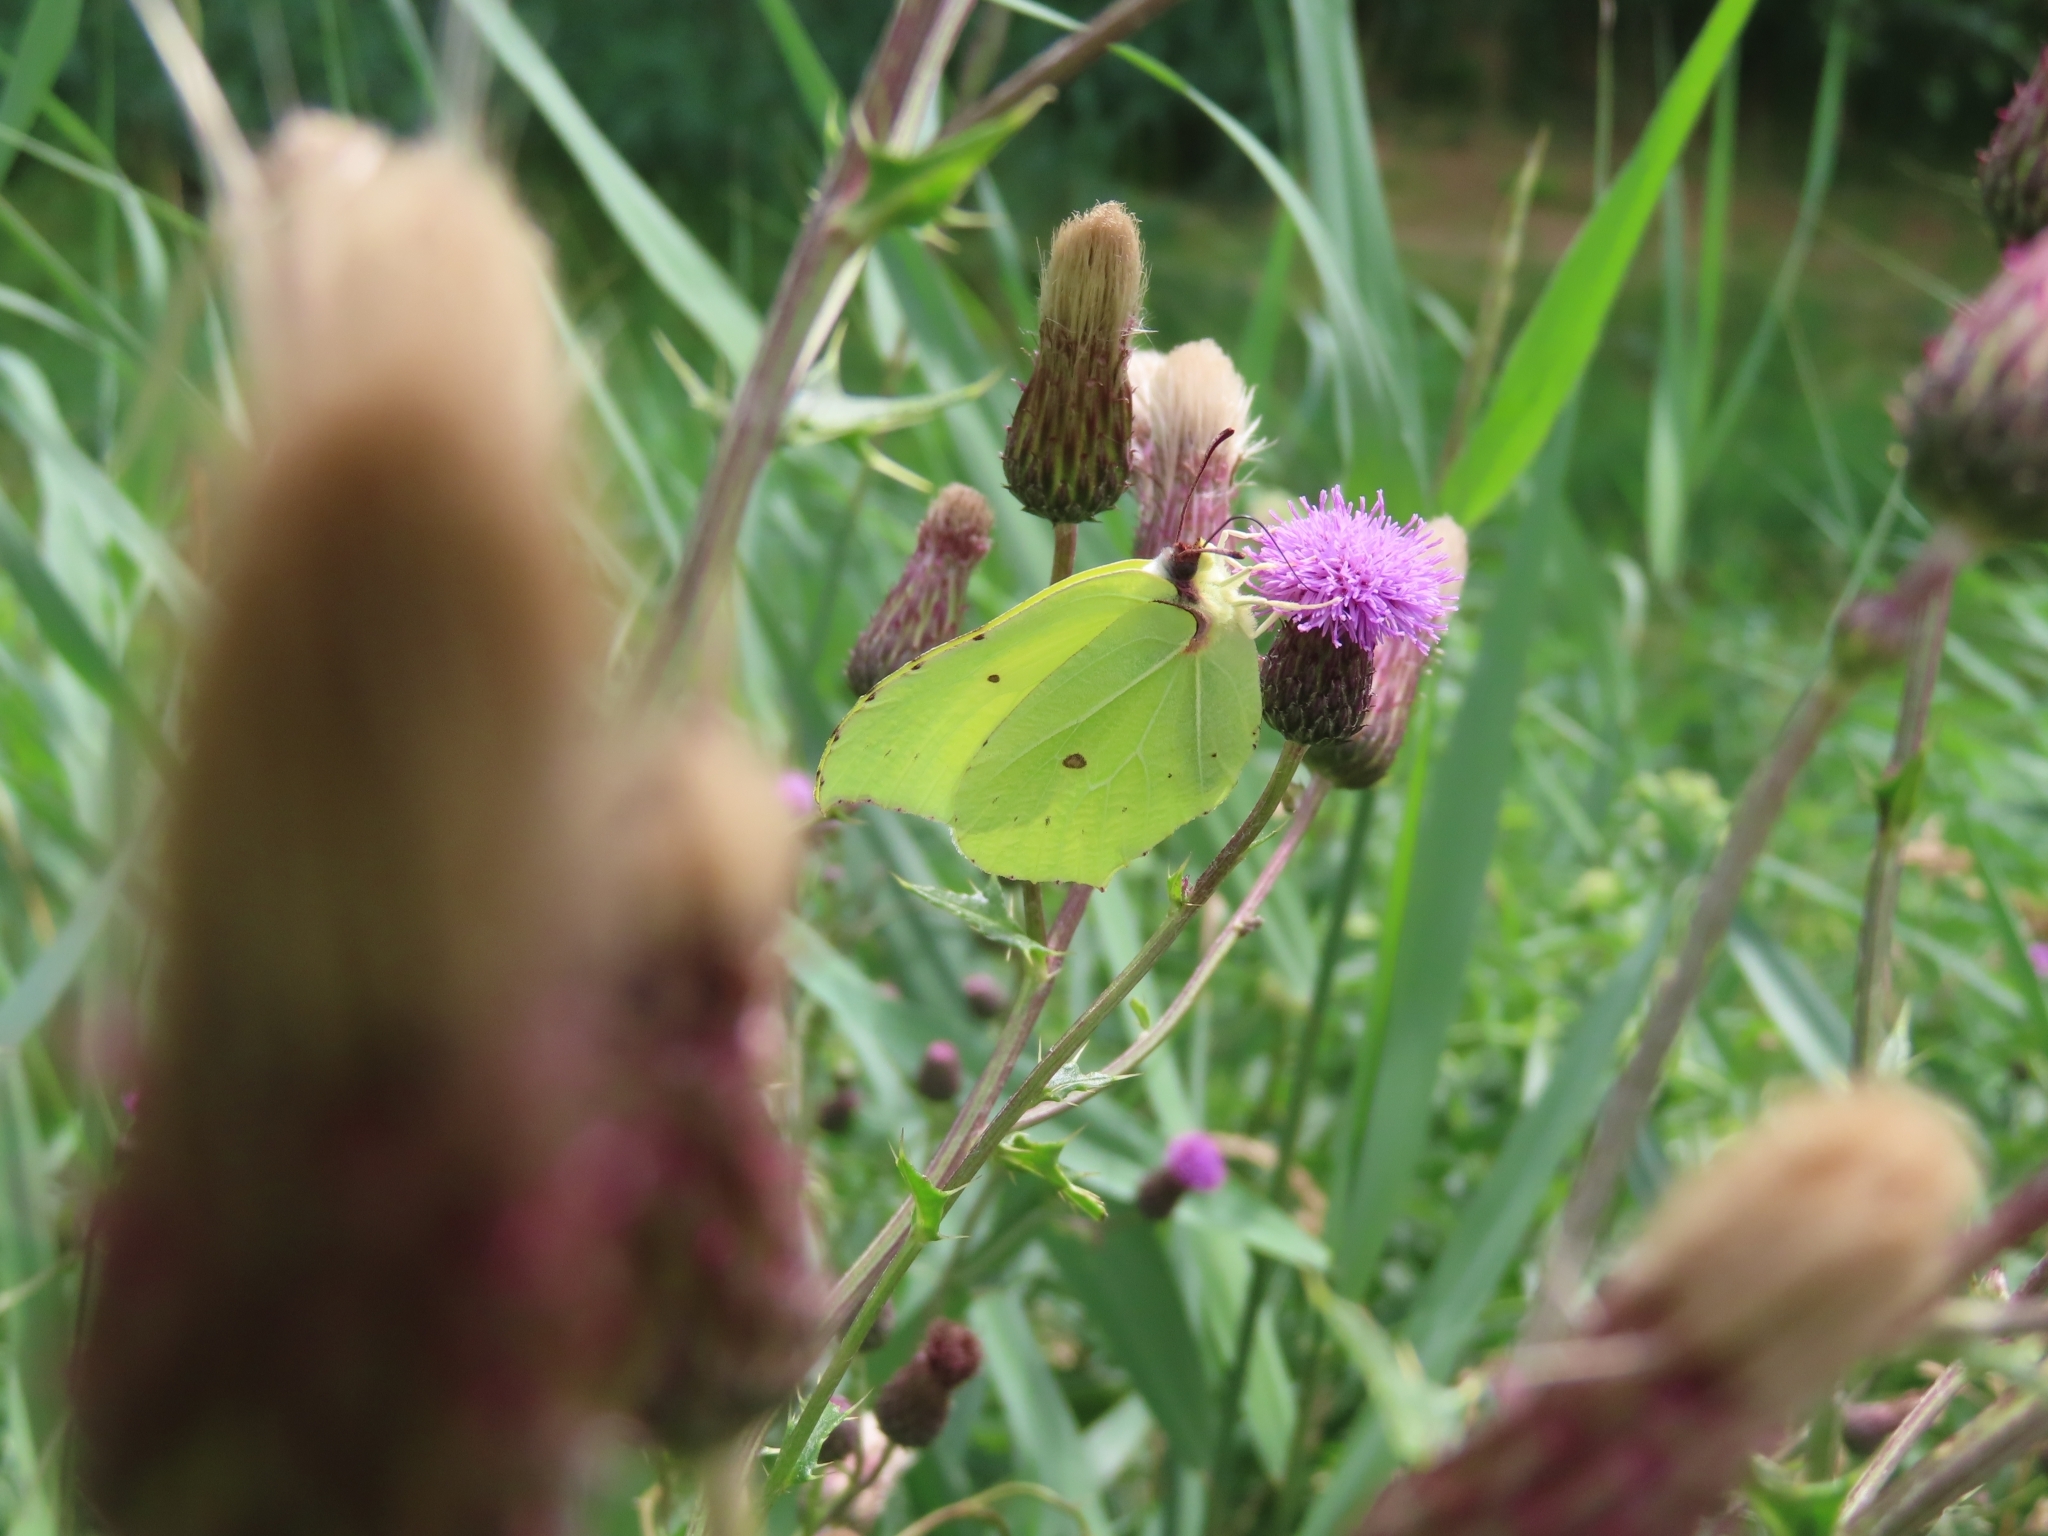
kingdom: Animalia
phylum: Arthropoda
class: Insecta
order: Lepidoptera
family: Pieridae
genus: Gonepteryx
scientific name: Gonepteryx rhamni
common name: Brimstone
